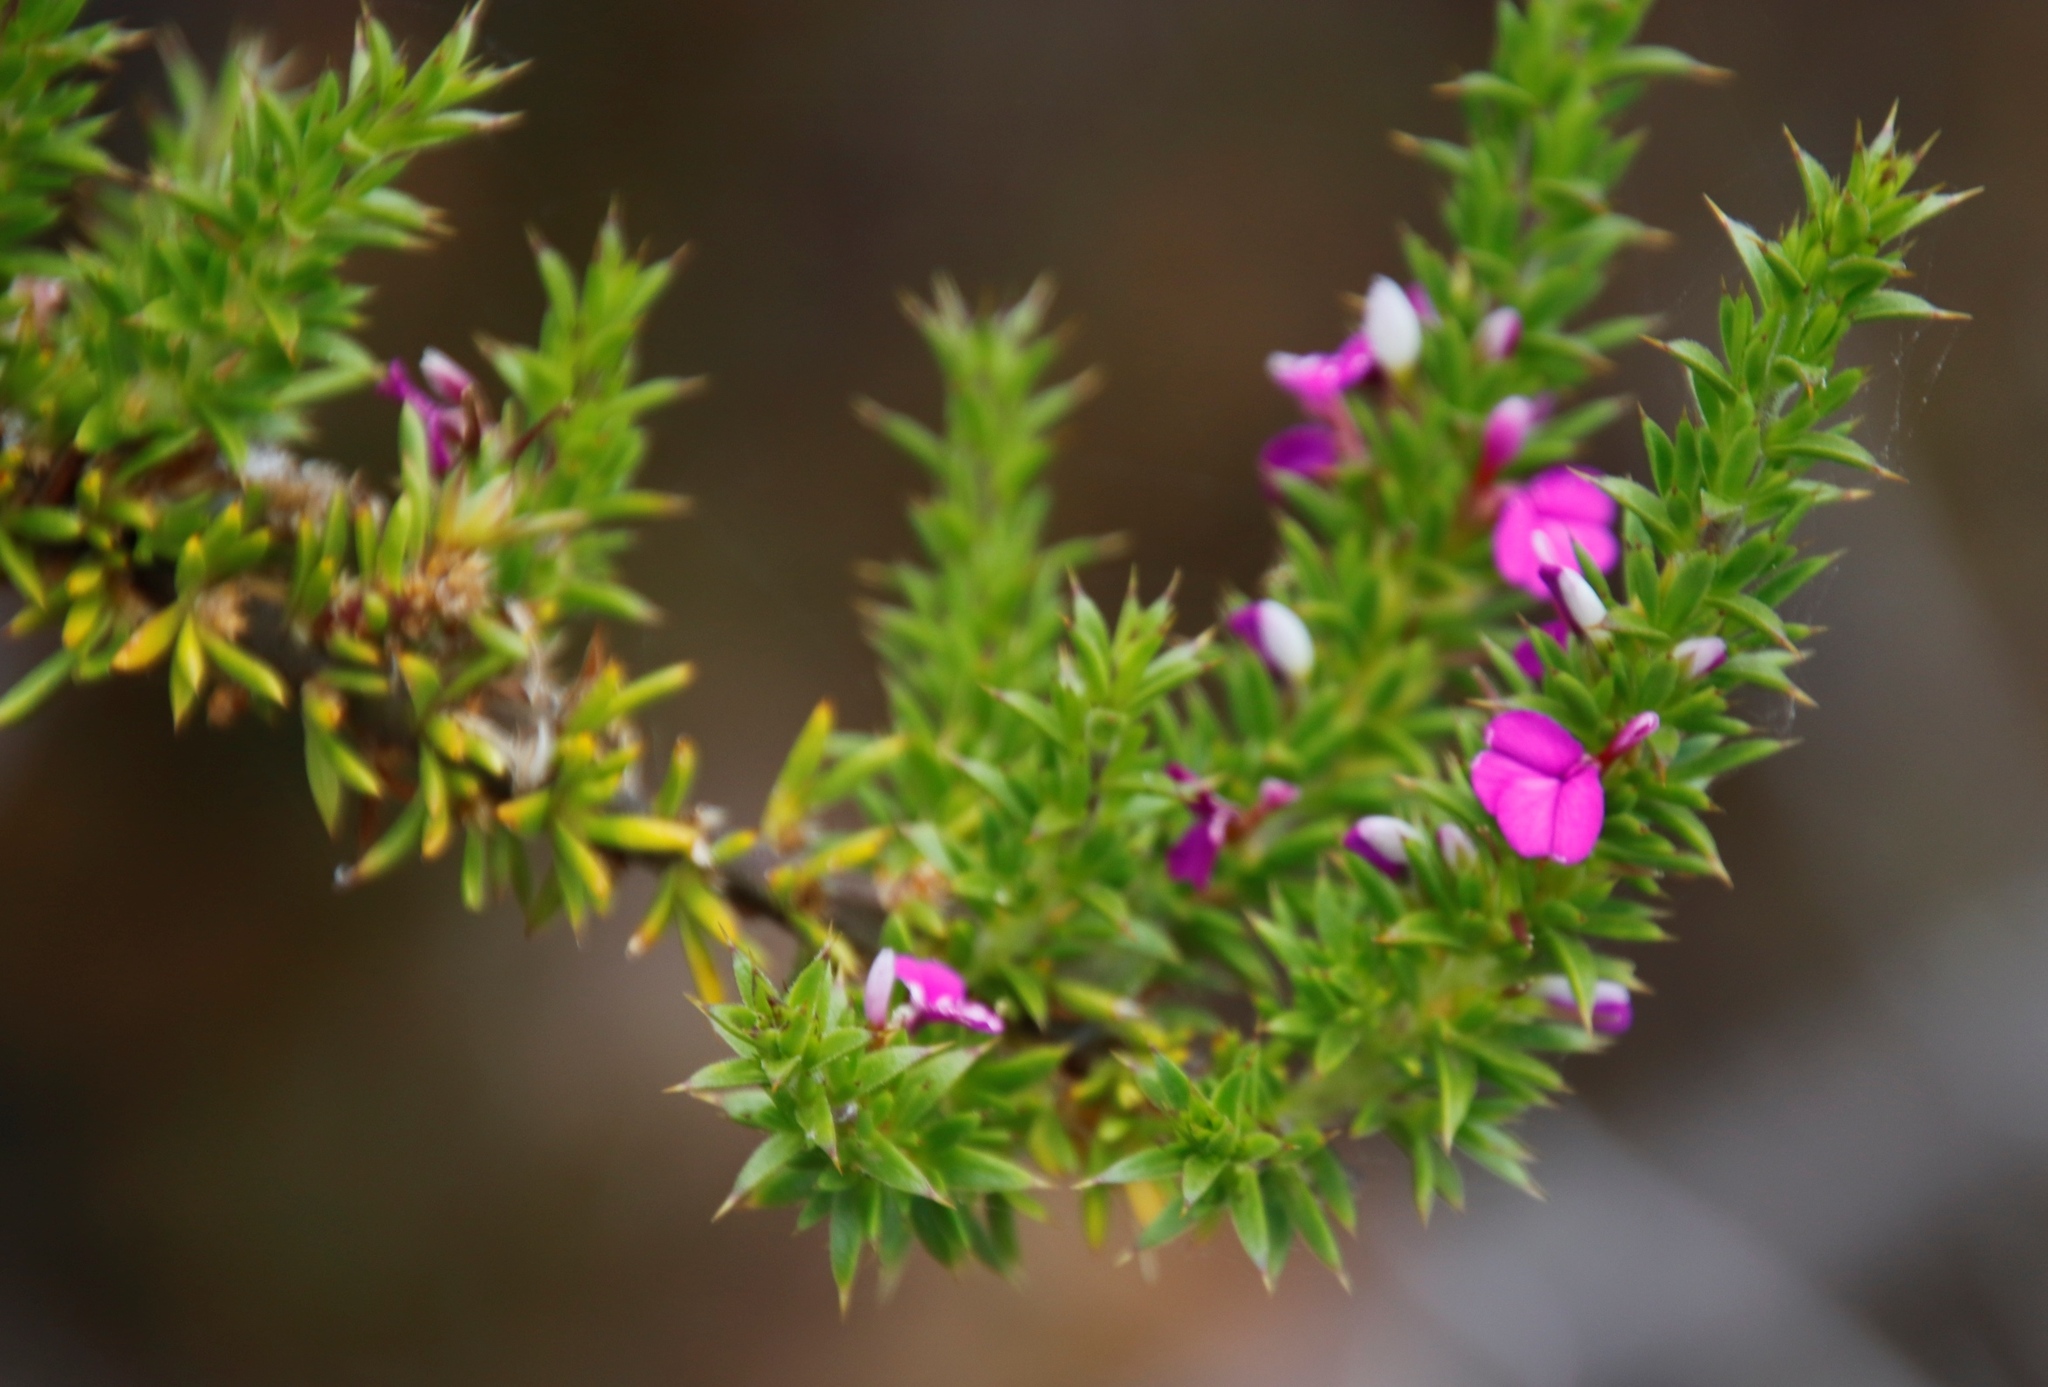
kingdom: Plantae
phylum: Tracheophyta
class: Magnoliopsida
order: Fabales
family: Polygalaceae
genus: Muraltia
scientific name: Muraltia heisteria
